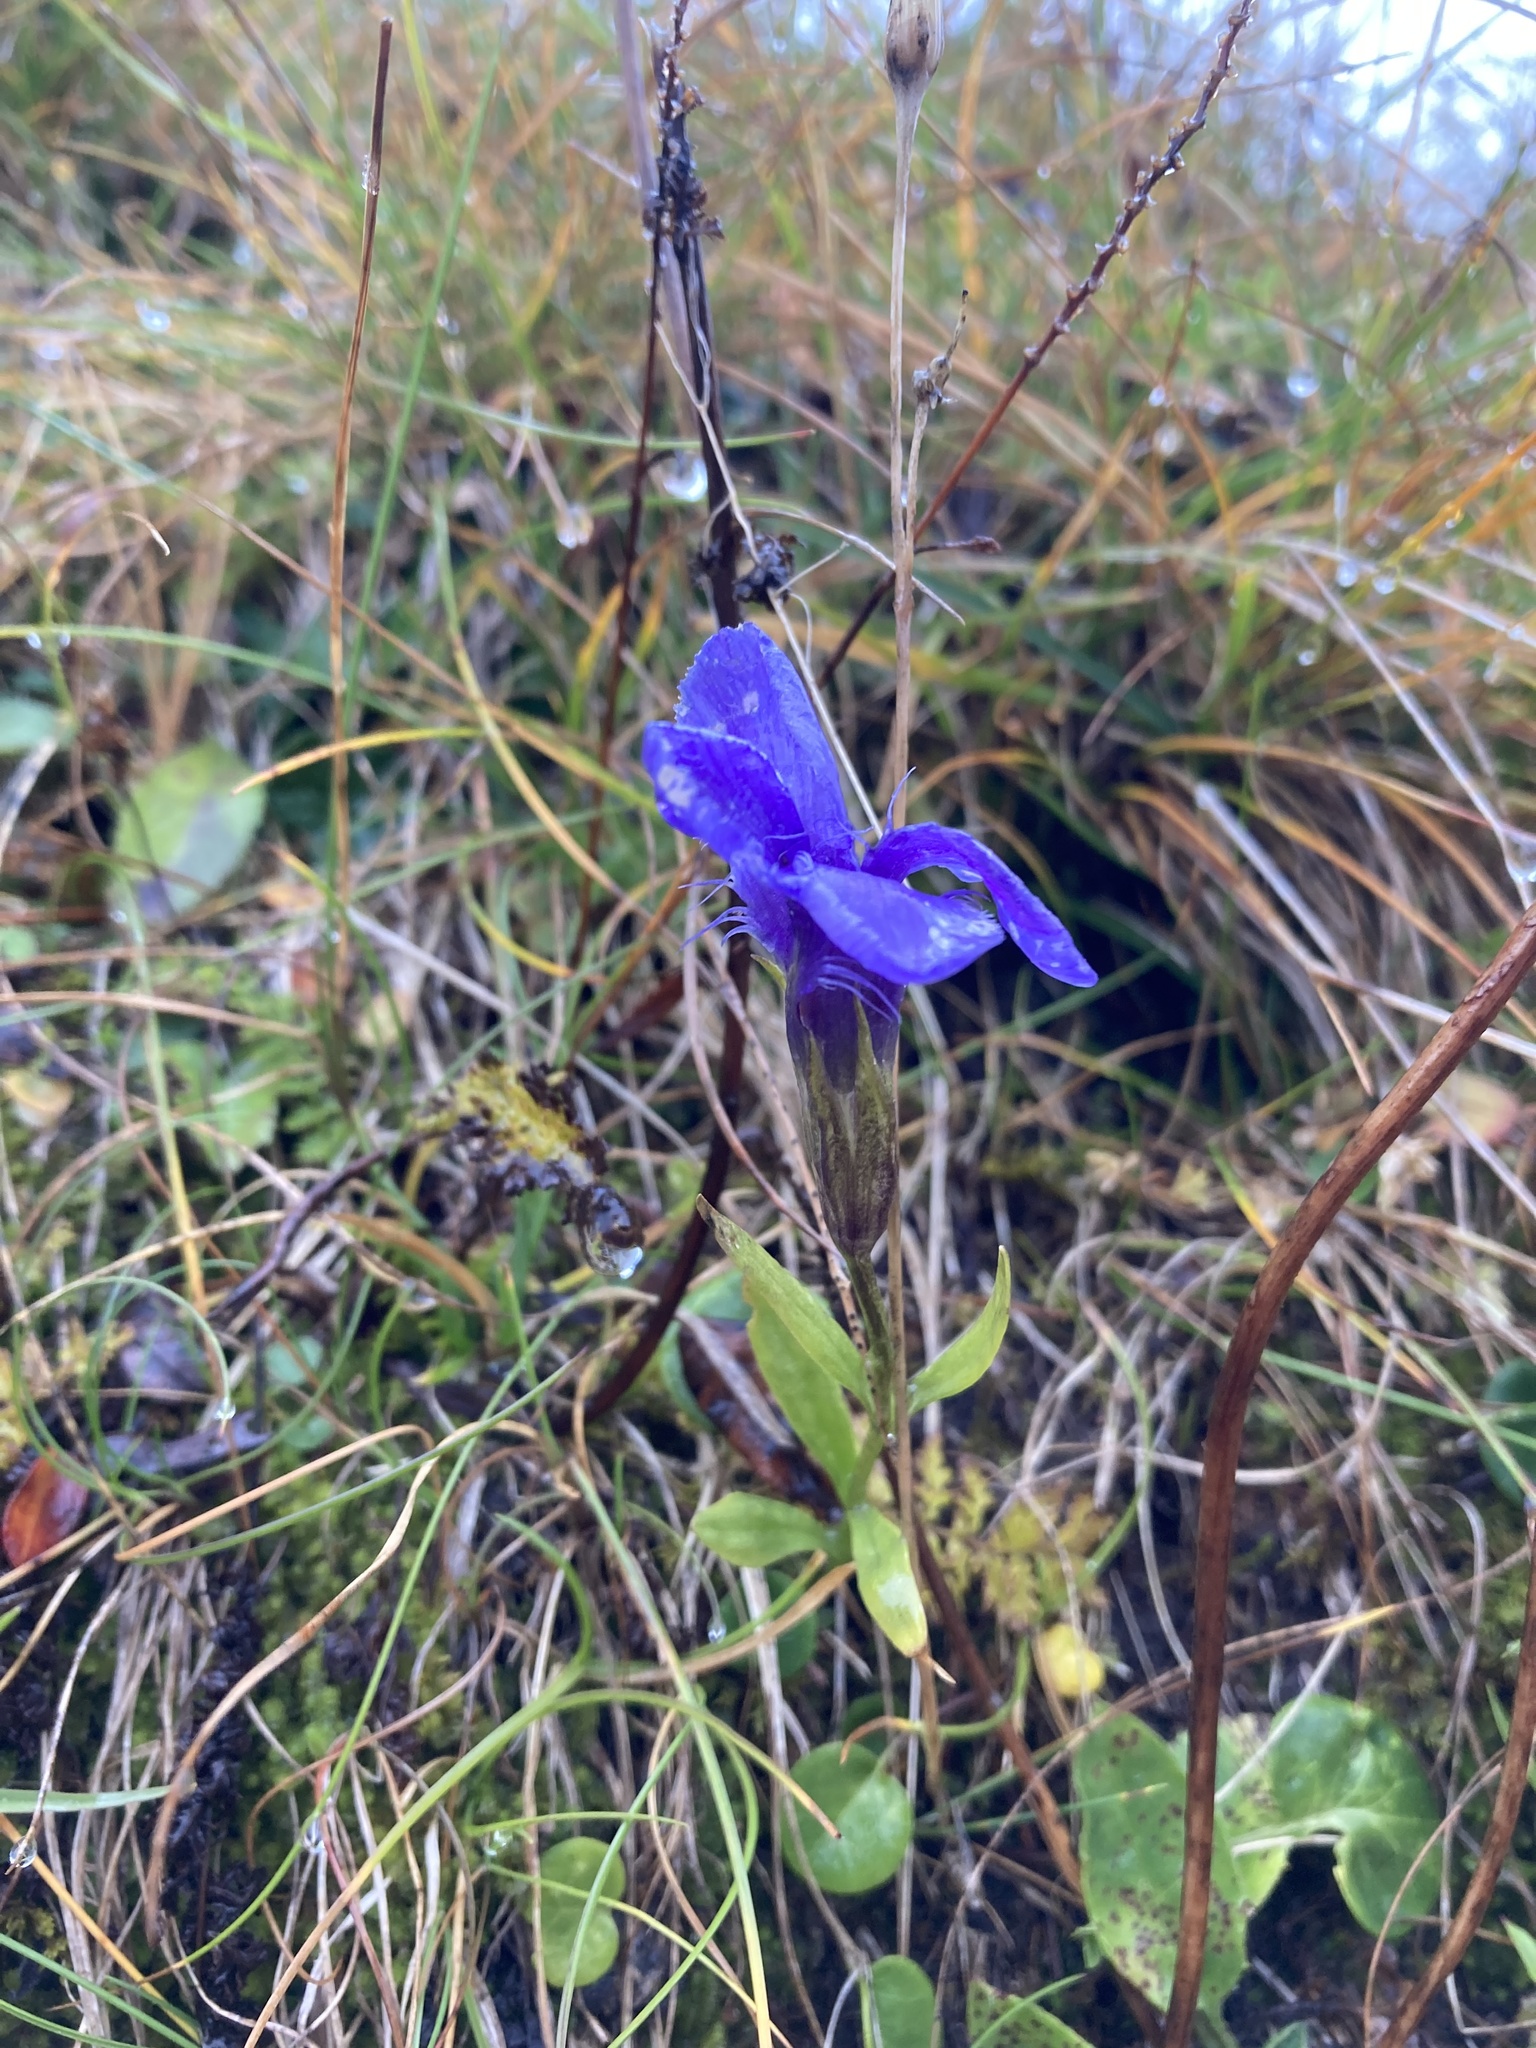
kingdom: Plantae
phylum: Tracheophyta
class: Magnoliopsida
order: Gentianales
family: Gentianaceae
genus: Gentianopsis
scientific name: Gentianopsis ciliata
